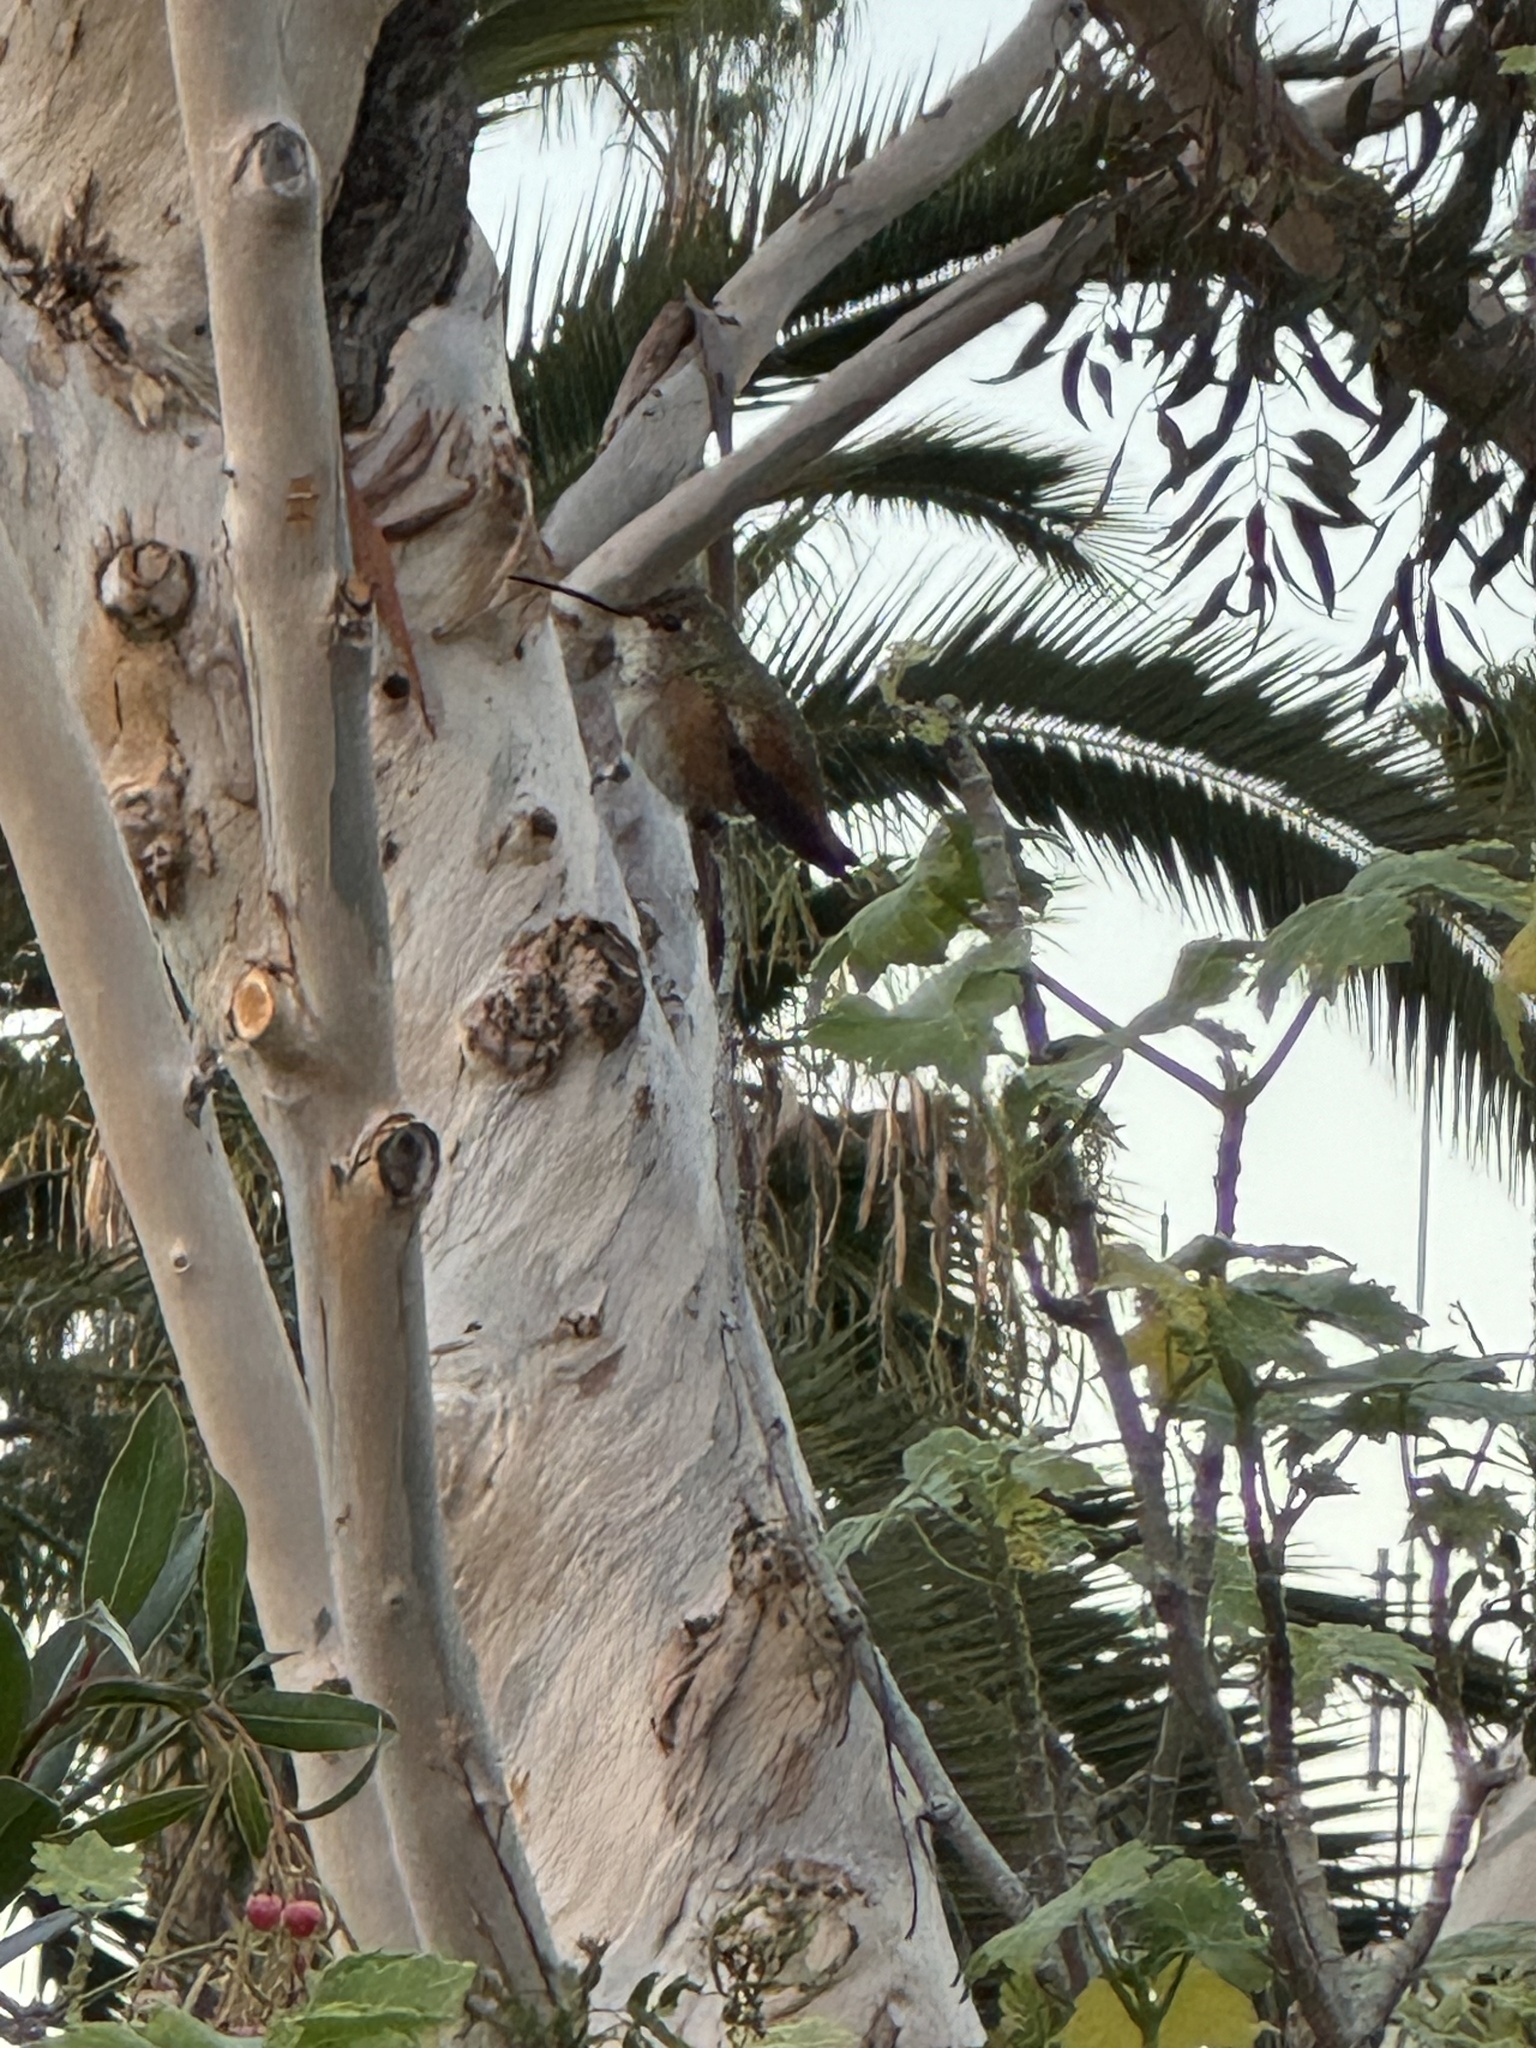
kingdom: Animalia
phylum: Chordata
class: Aves
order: Apodiformes
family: Trochilidae
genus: Selasphorus
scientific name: Selasphorus sasin
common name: Allen's hummingbird
